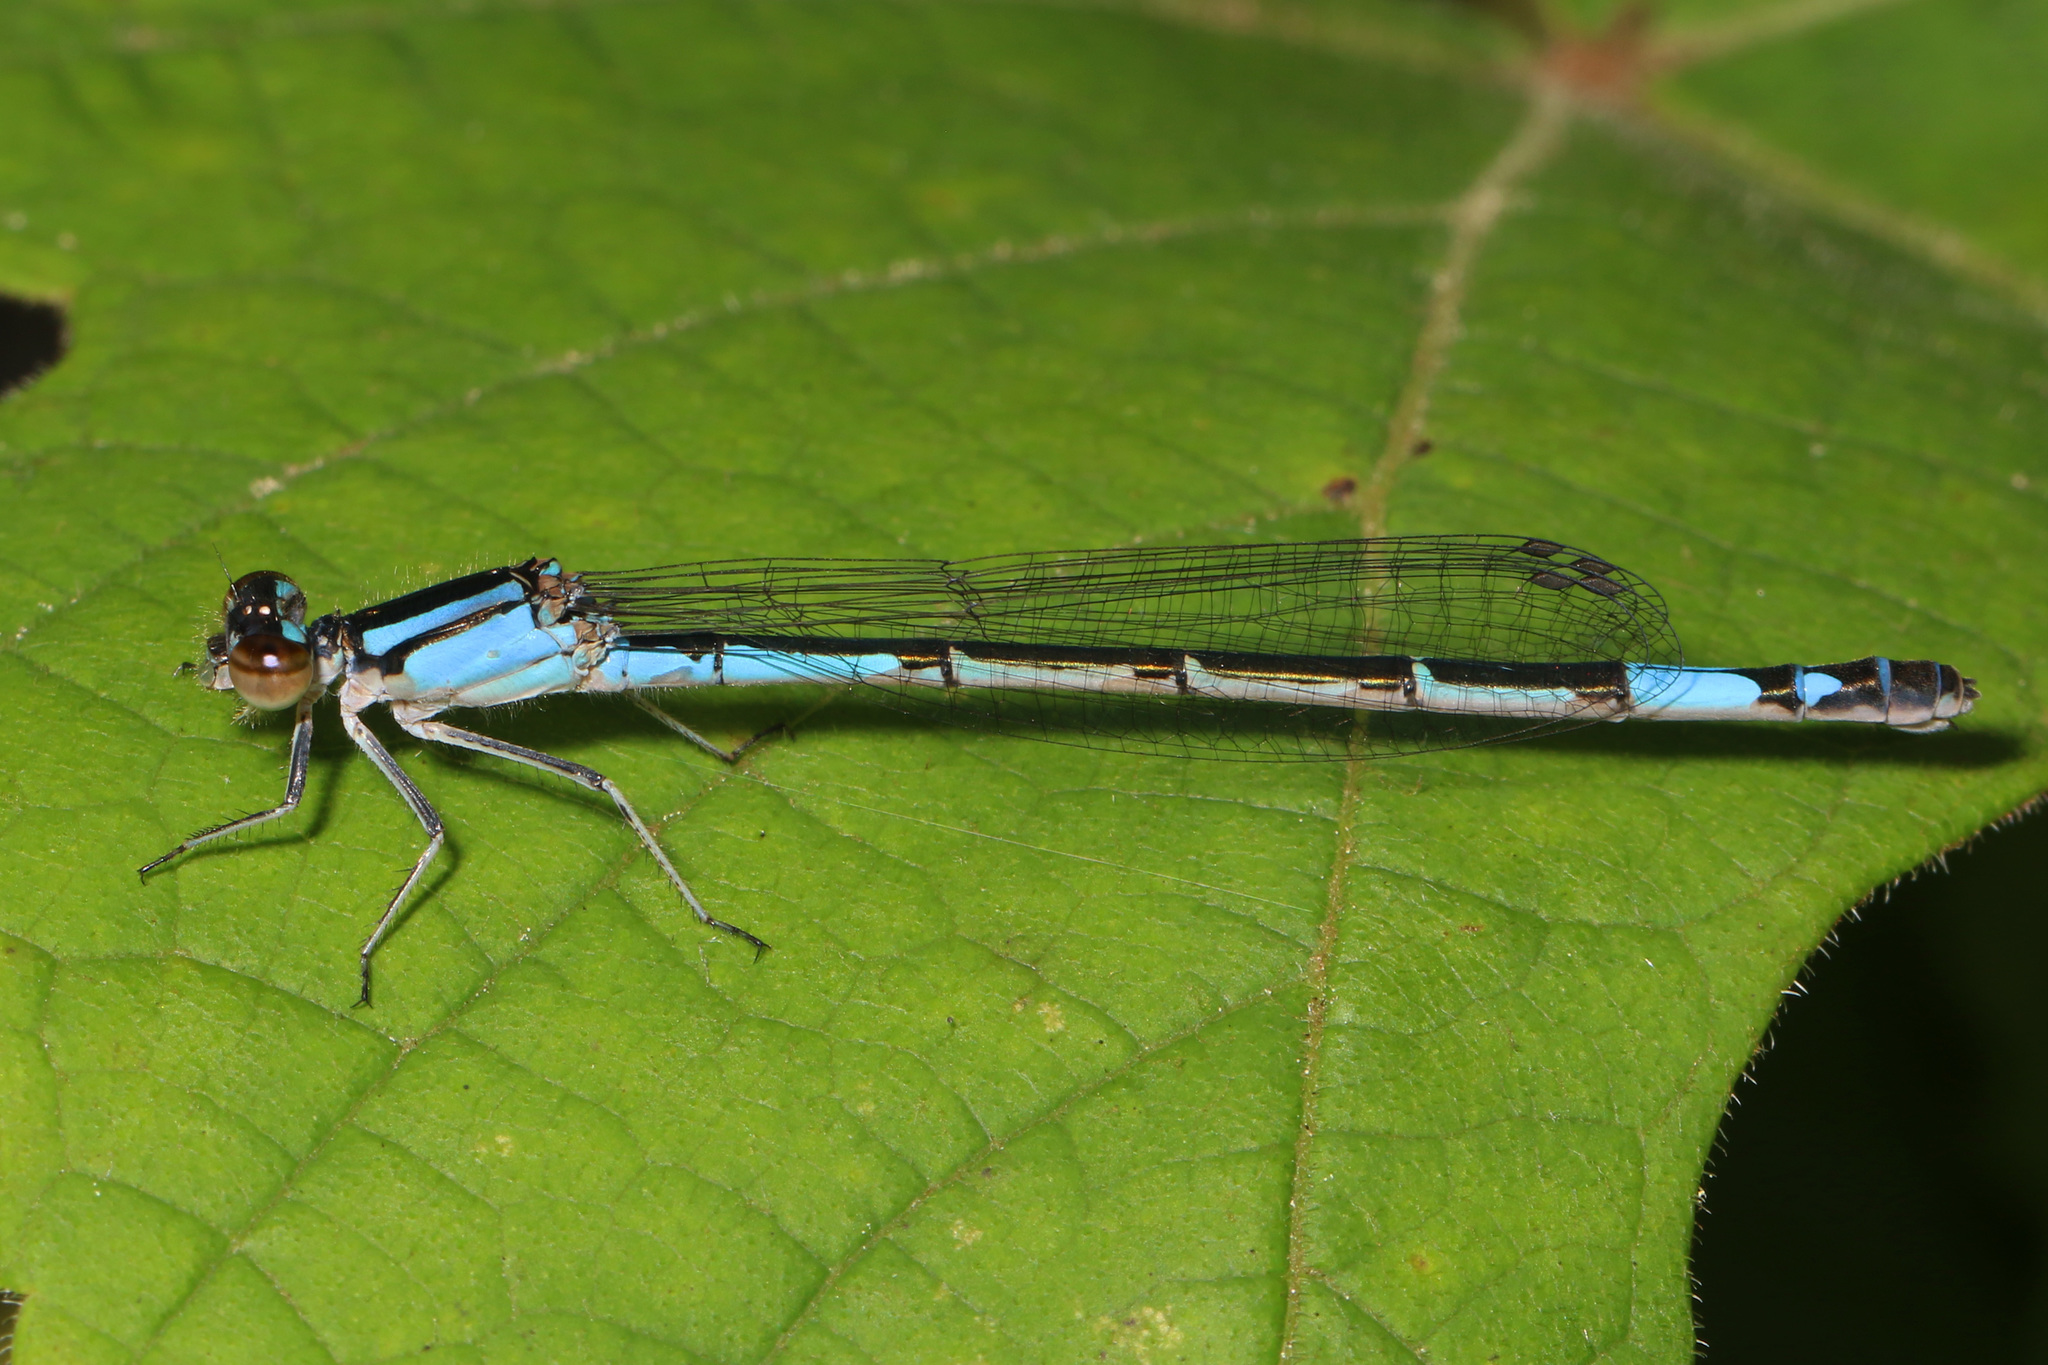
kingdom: Animalia
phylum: Arthropoda
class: Insecta
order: Odonata
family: Coenagrionidae
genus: Enallagma
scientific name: Enallagma aspersum
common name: Azure bluet
